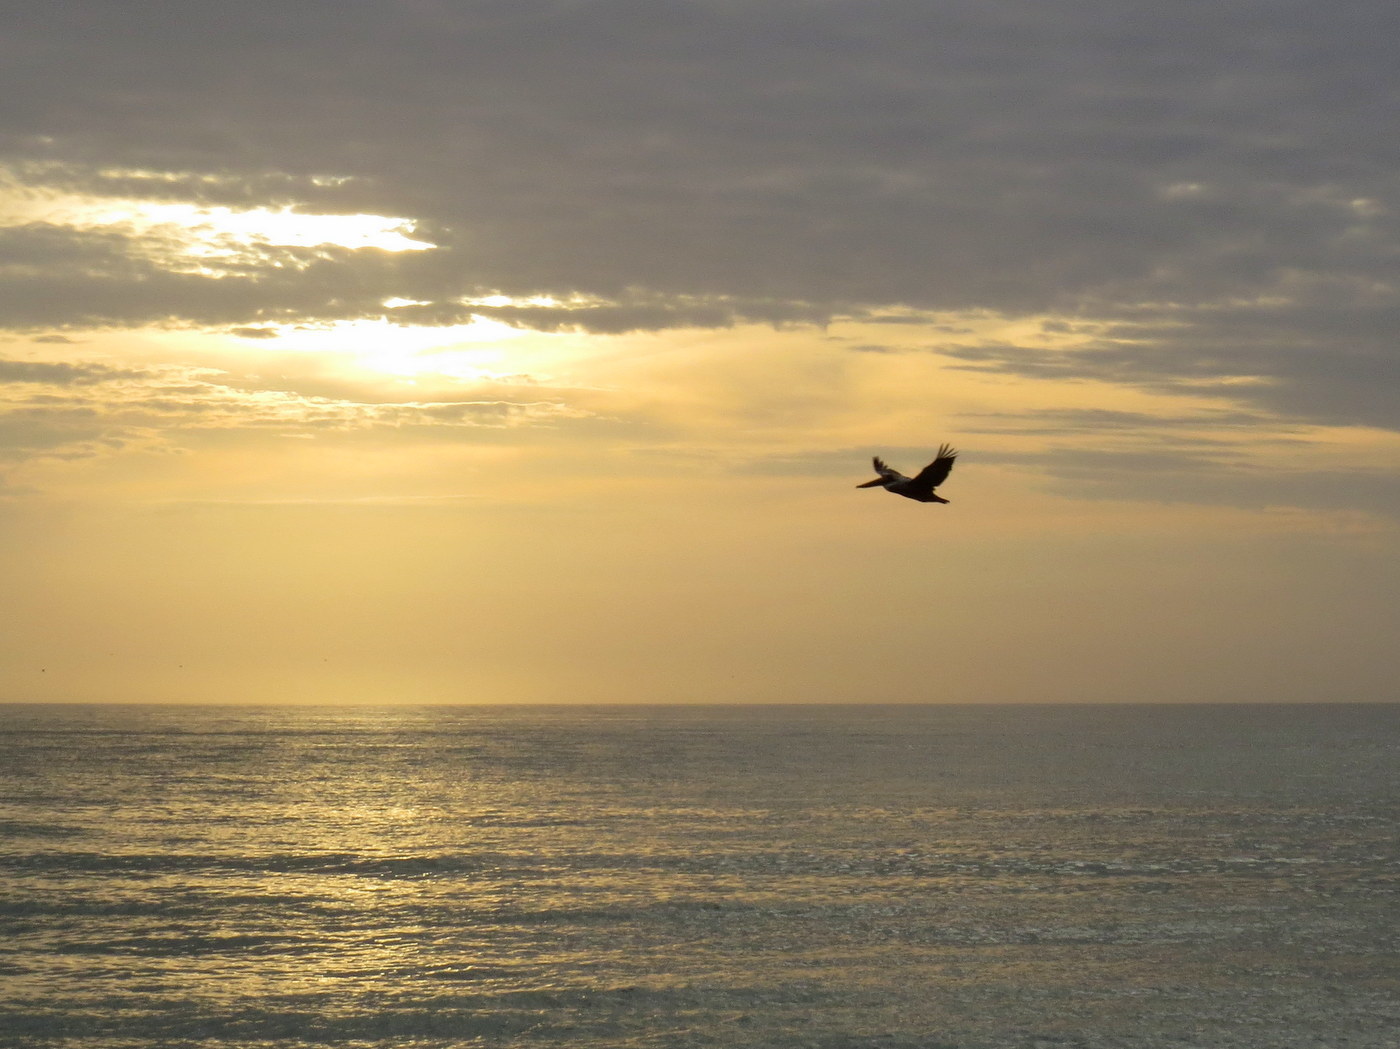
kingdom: Animalia
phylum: Chordata
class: Aves
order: Pelecaniformes
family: Pelecanidae
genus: Pelecanus
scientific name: Pelecanus occidentalis
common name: Brown pelican
